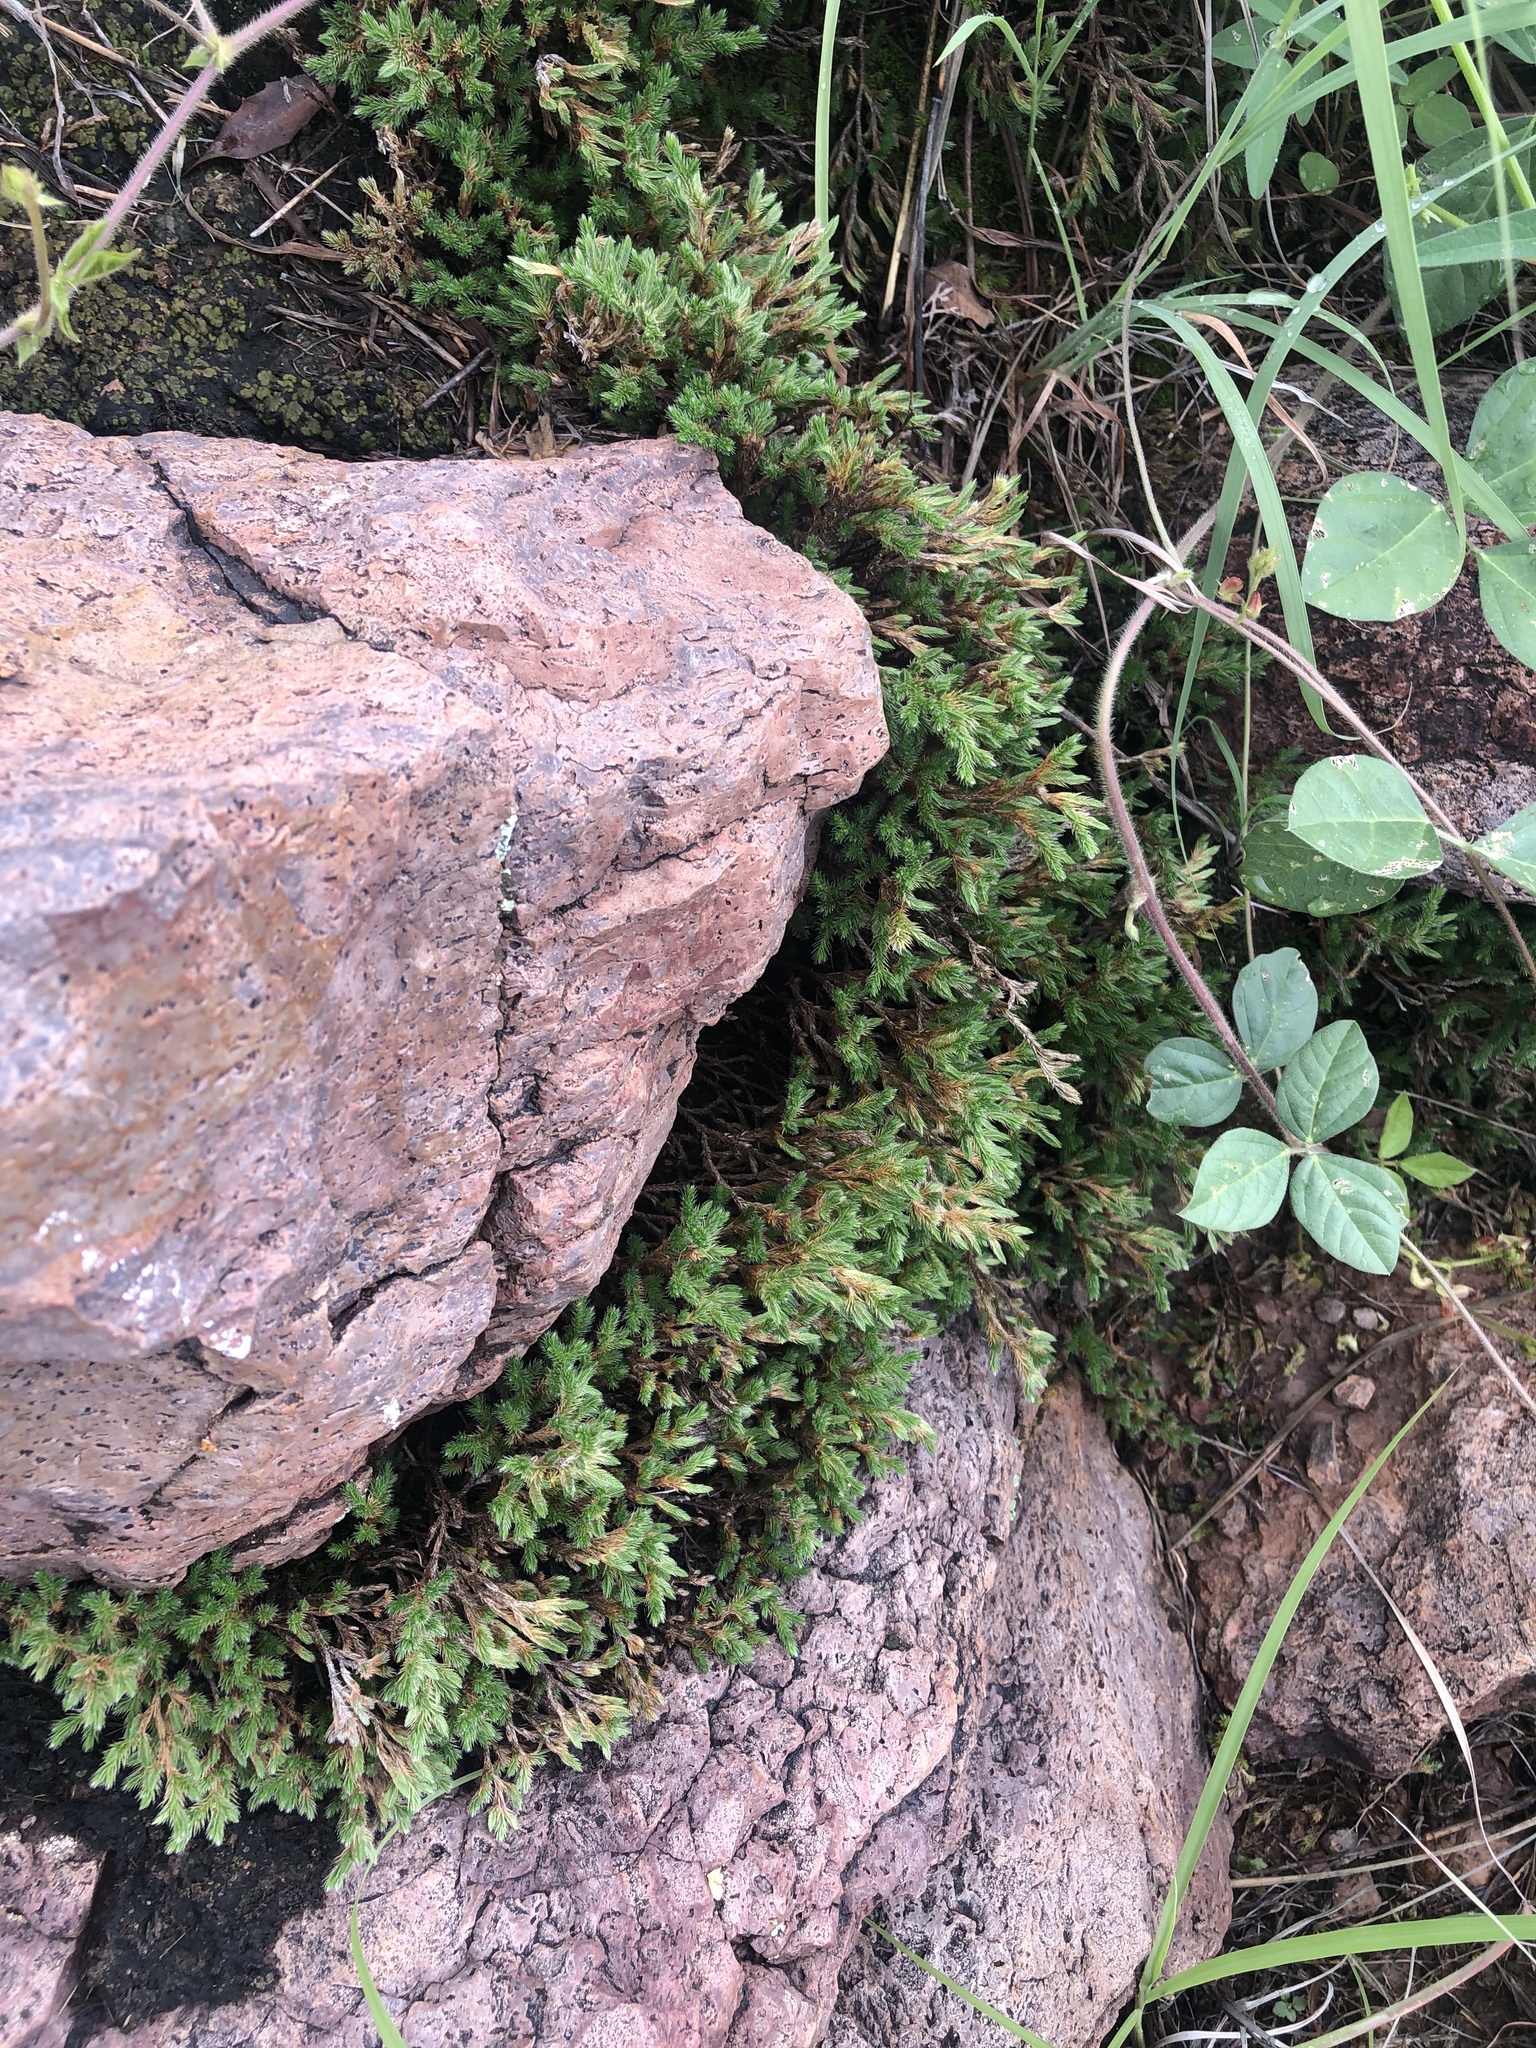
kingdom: Plantae
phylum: Tracheophyta
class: Lycopodiopsida
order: Selaginellales
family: Selaginellaceae
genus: Selaginella
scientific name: Selaginella rupincola
